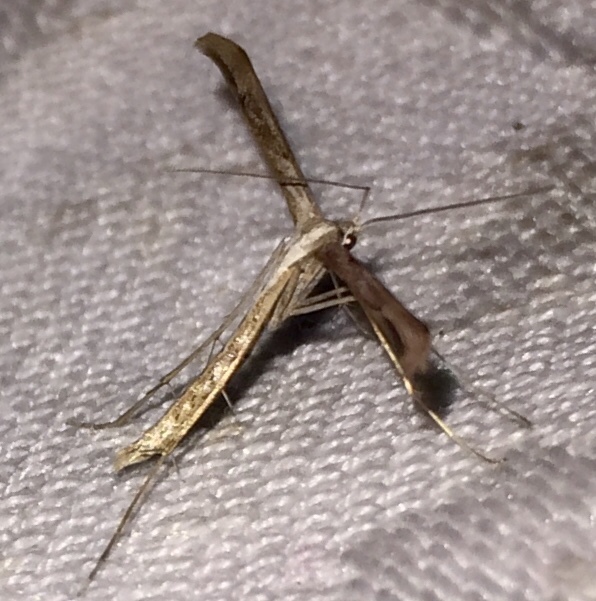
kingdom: Animalia
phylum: Arthropoda
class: Insecta
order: Lepidoptera
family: Pterophoridae
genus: Emmelina
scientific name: Emmelina monodactyla
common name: Common plume
